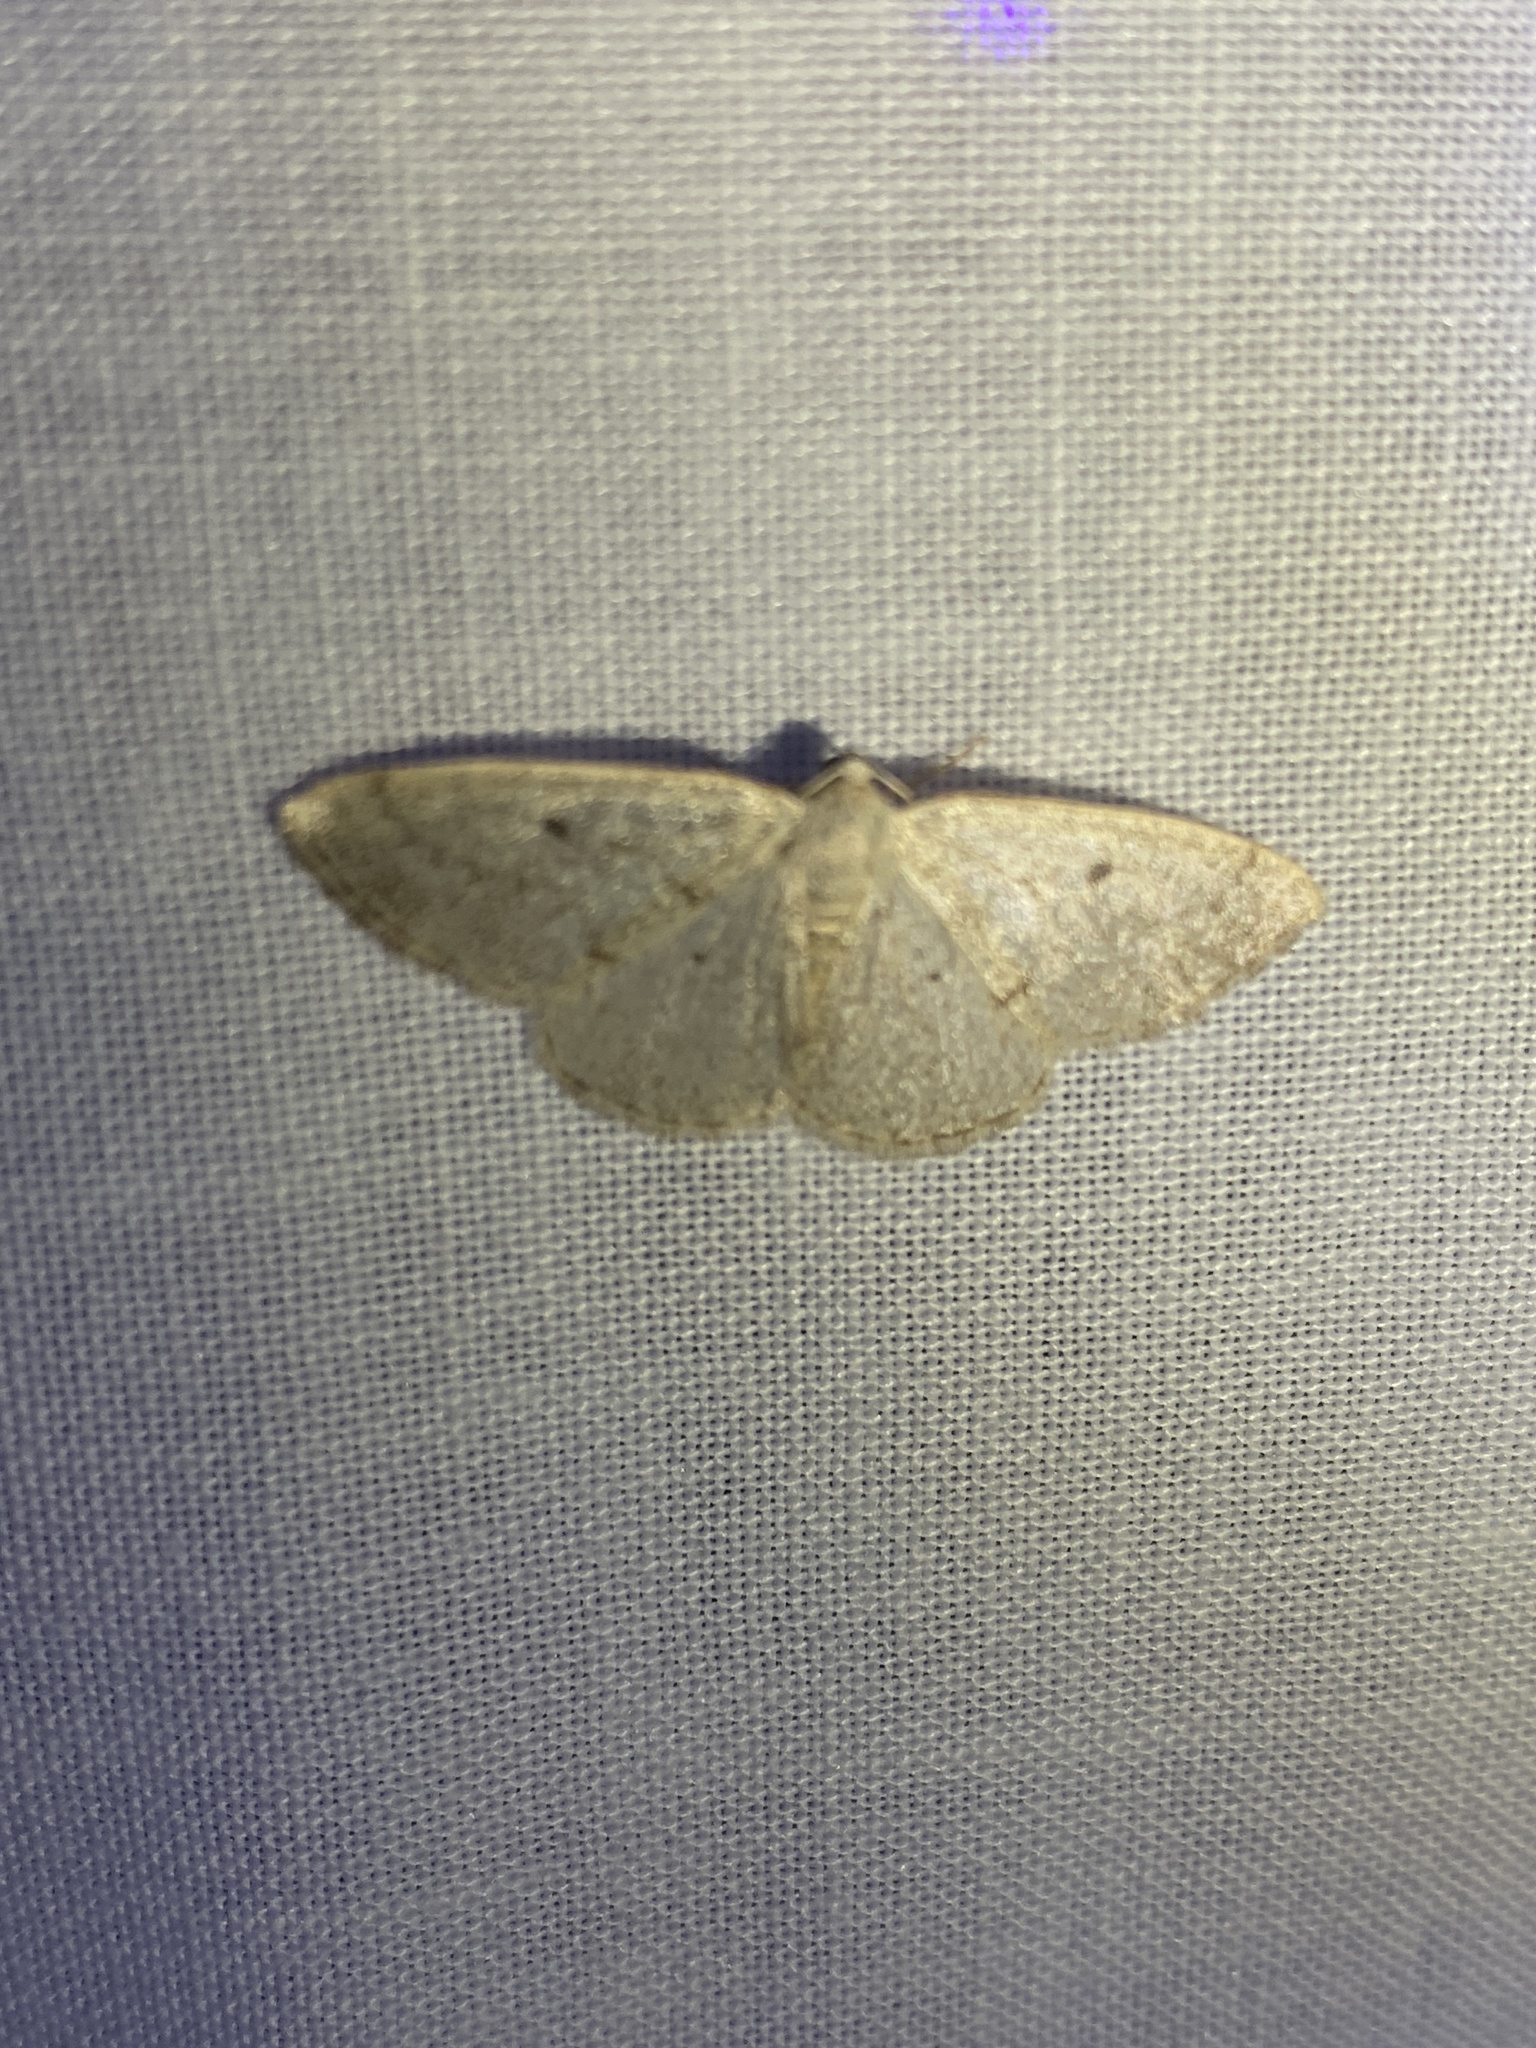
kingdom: Animalia
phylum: Arthropoda
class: Insecta
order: Lepidoptera
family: Geometridae
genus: Lomographa
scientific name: Lomographa glomeraria
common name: Gray spring moth
